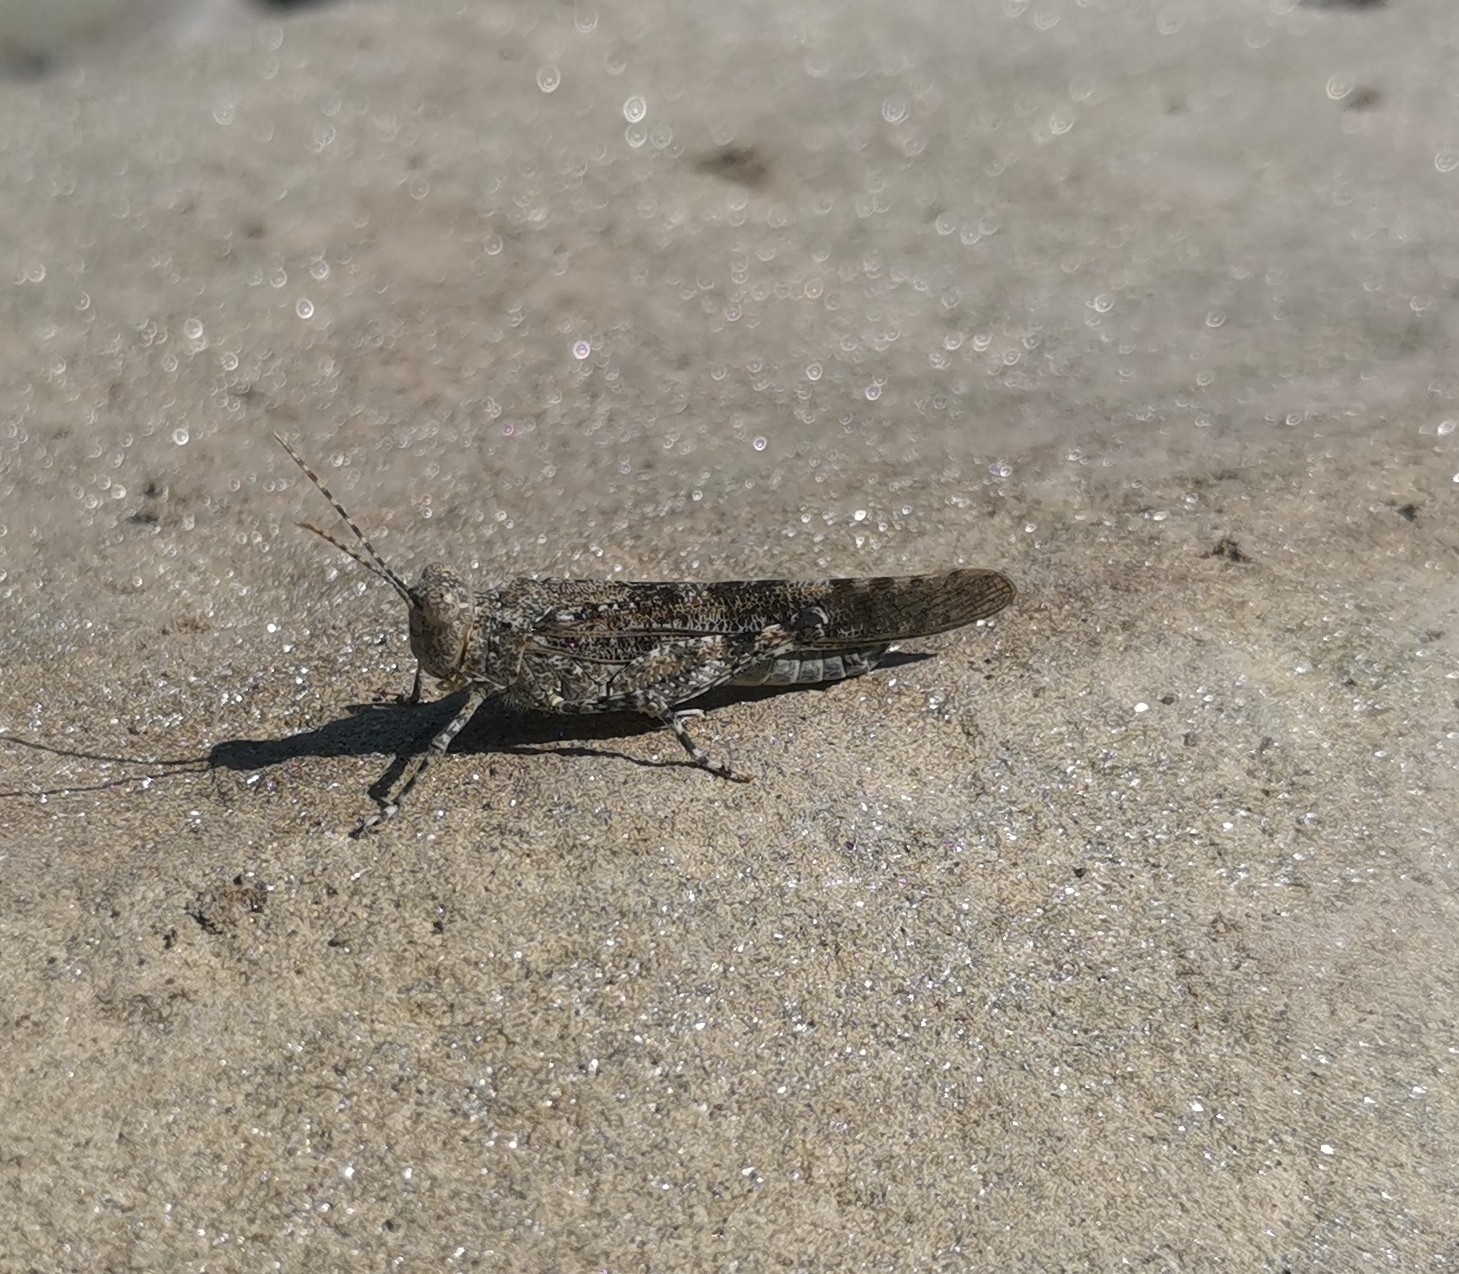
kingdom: Animalia
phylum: Arthropoda
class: Insecta
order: Orthoptera
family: Acrididae
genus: Sphingonotus
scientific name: Sphingonotus caerulans
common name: Blue-winged locust
